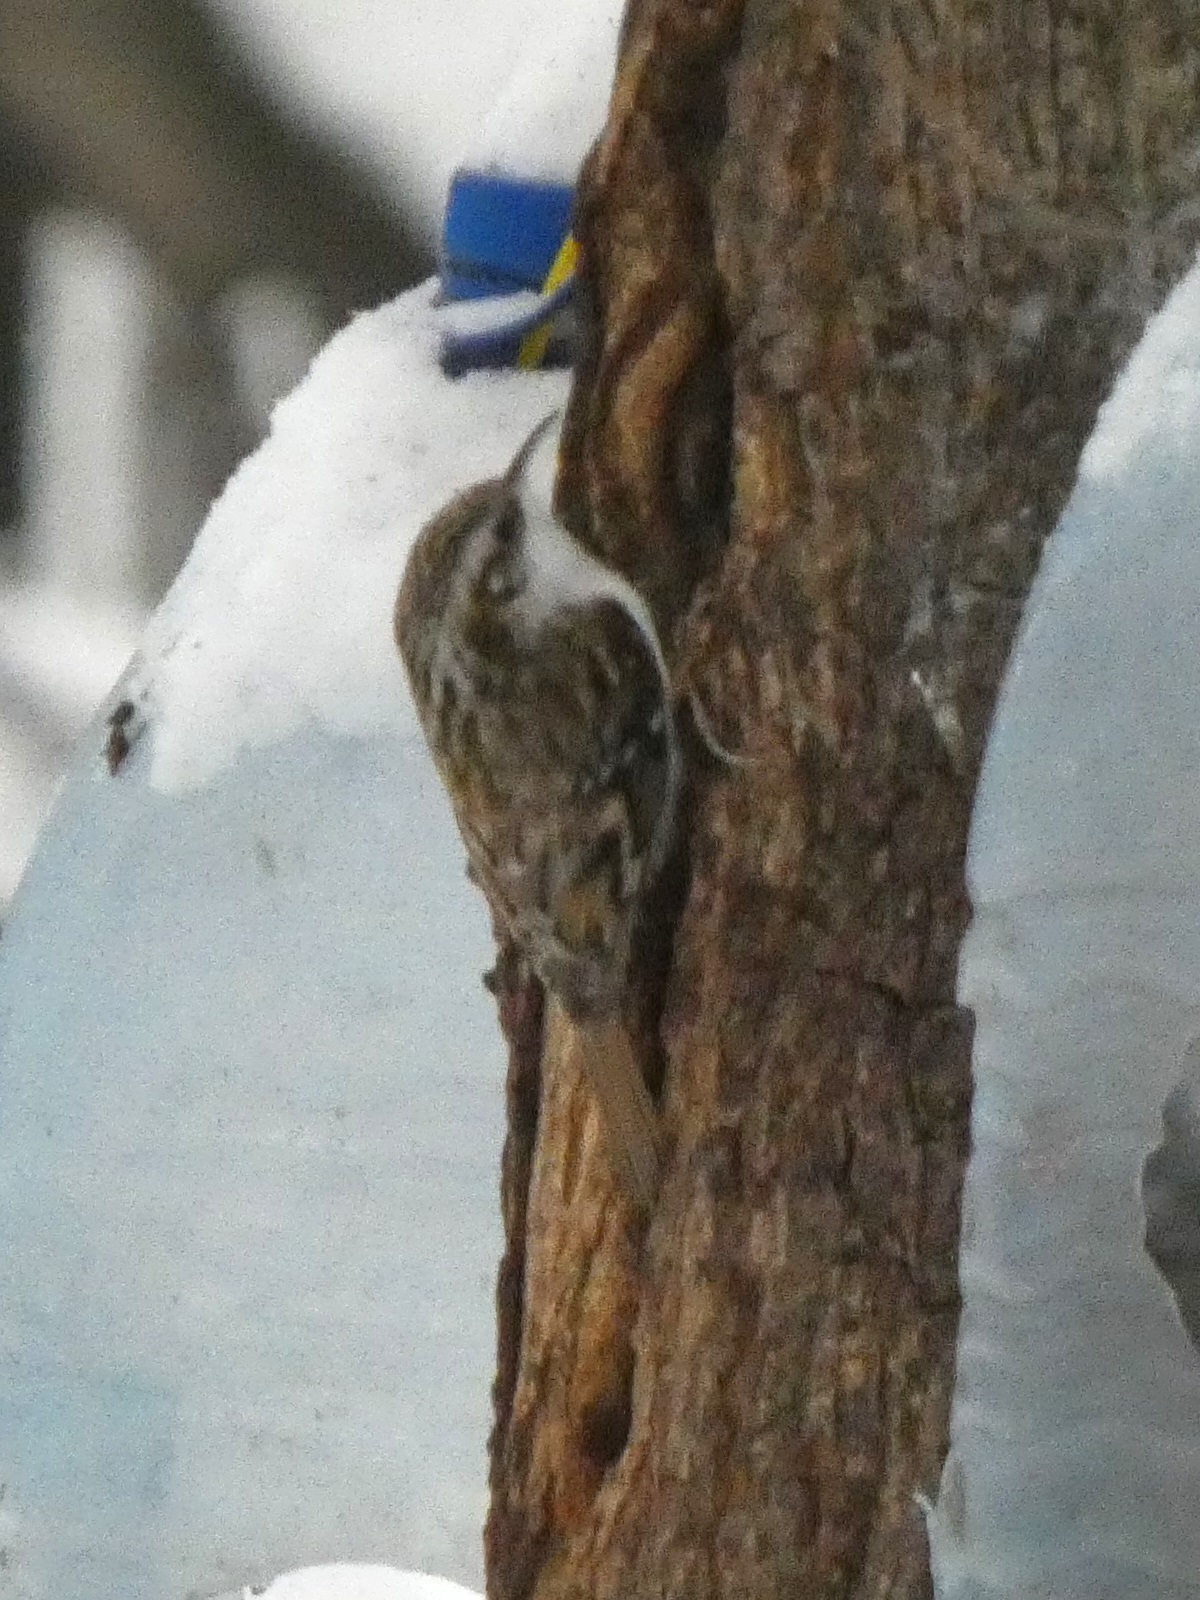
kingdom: Animalia
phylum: Chordata
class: Aves
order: Passeriformes
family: Certhiidae
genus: Certhia
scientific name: Certhia familiaris
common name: Eurasian treecreeper
